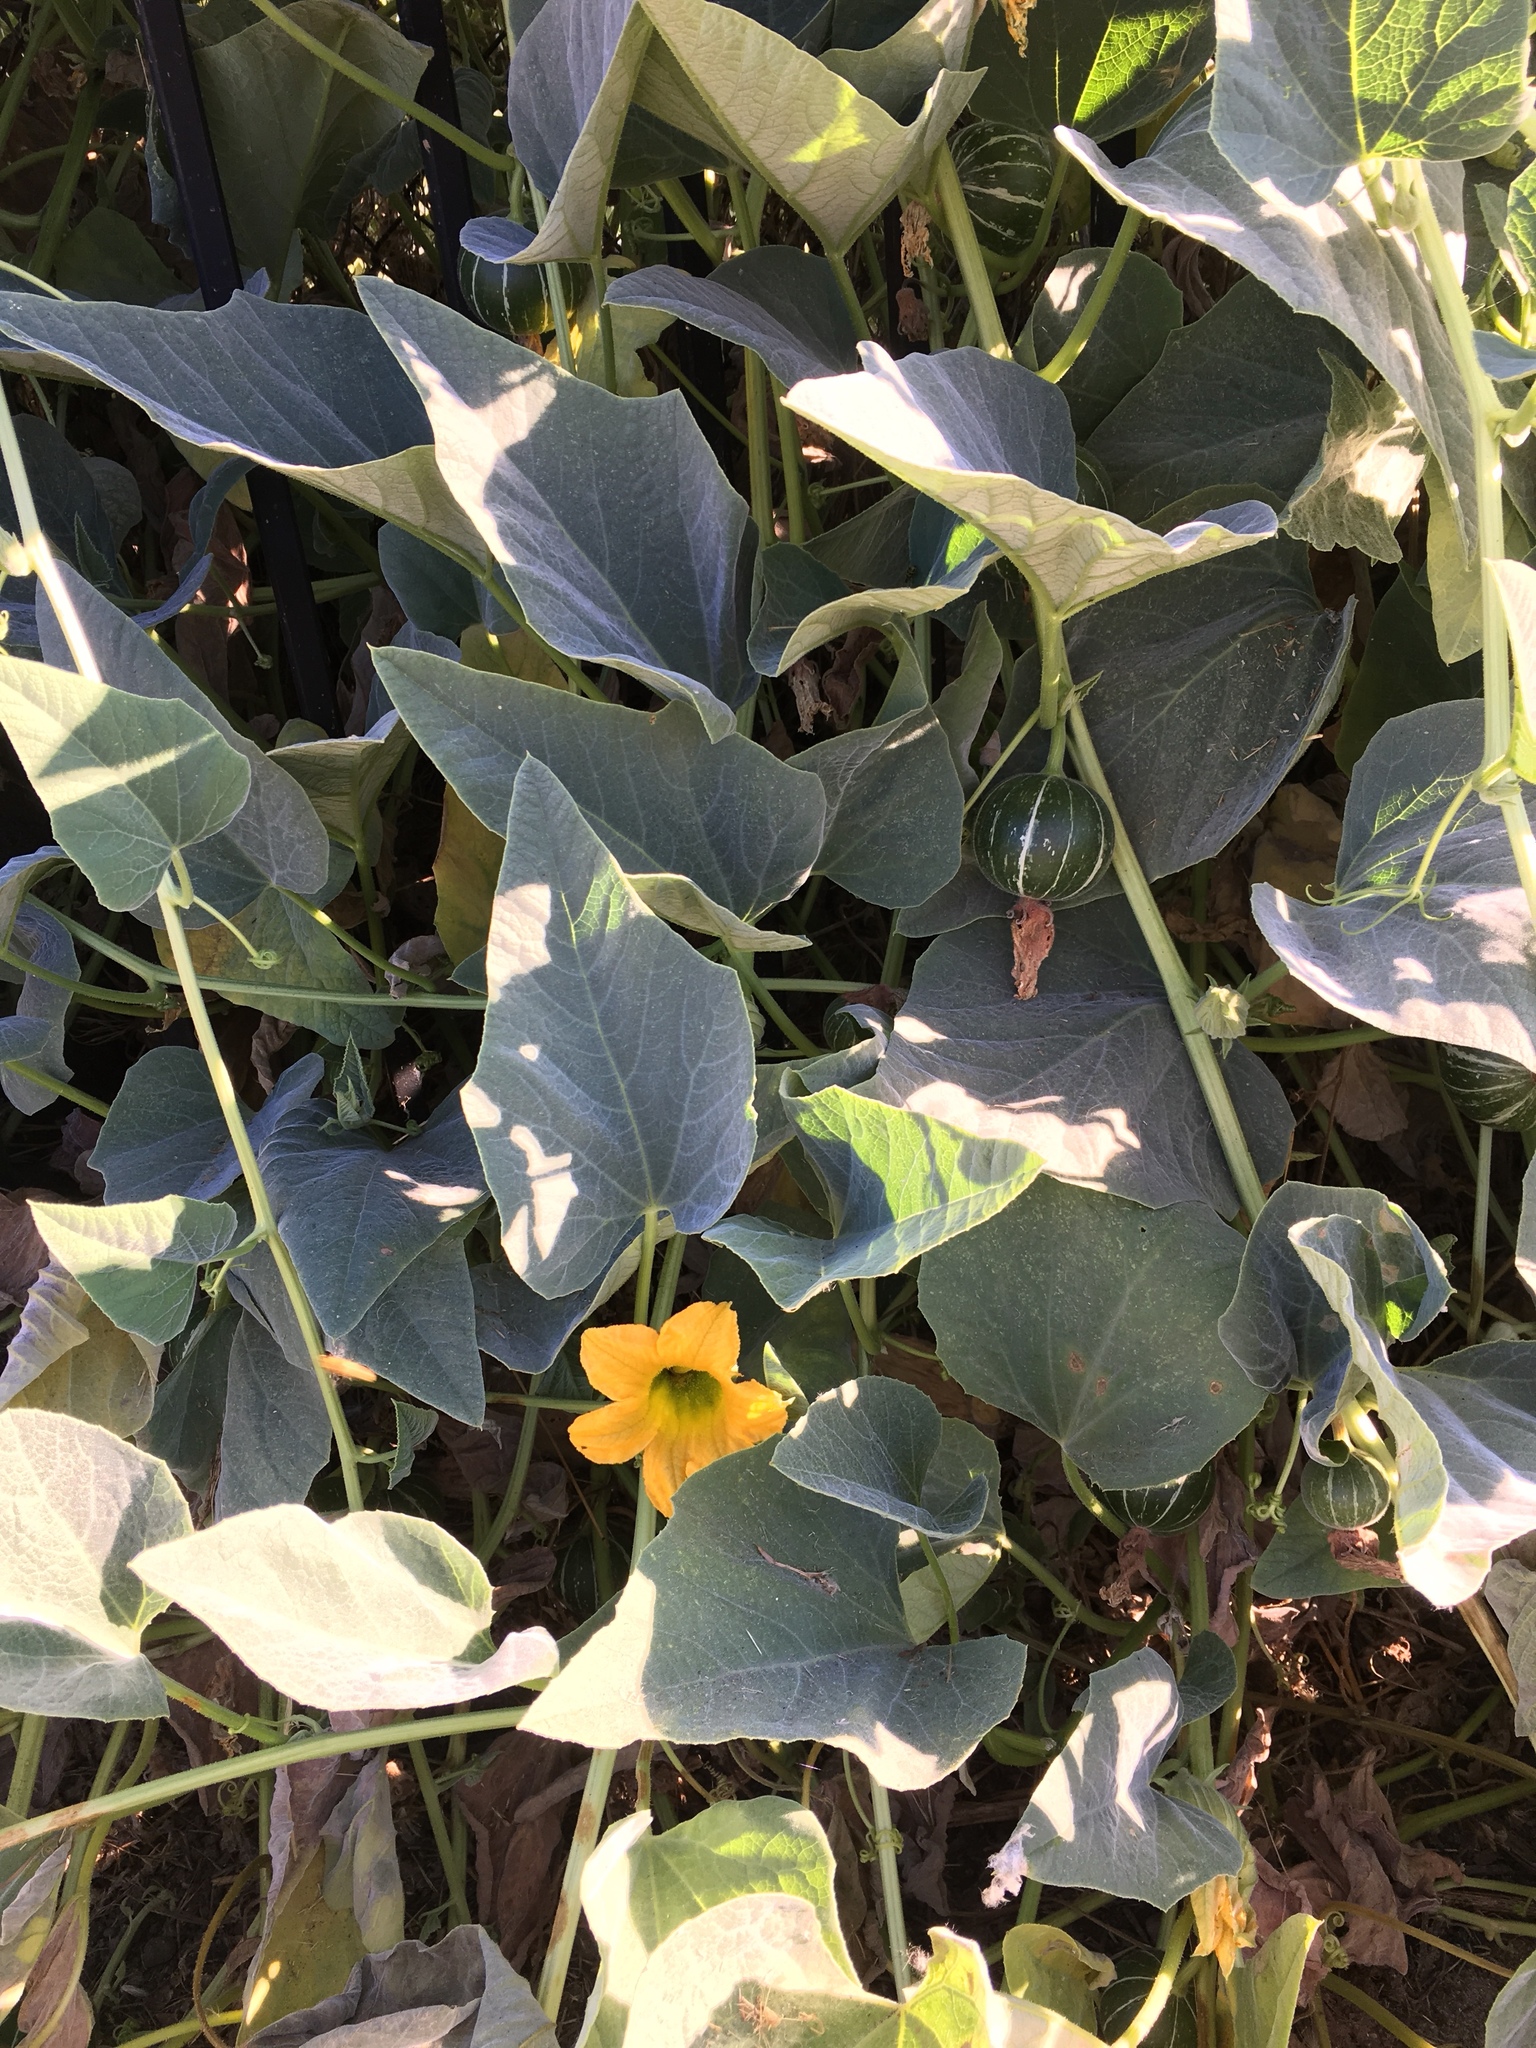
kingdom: Plantae
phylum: Tracheophyta
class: Magnoliopsida
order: Cucurbitales
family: Cucurbitaceae
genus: Cucurbita
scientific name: Cucurbita foetidissima
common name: Buffalo gourd
